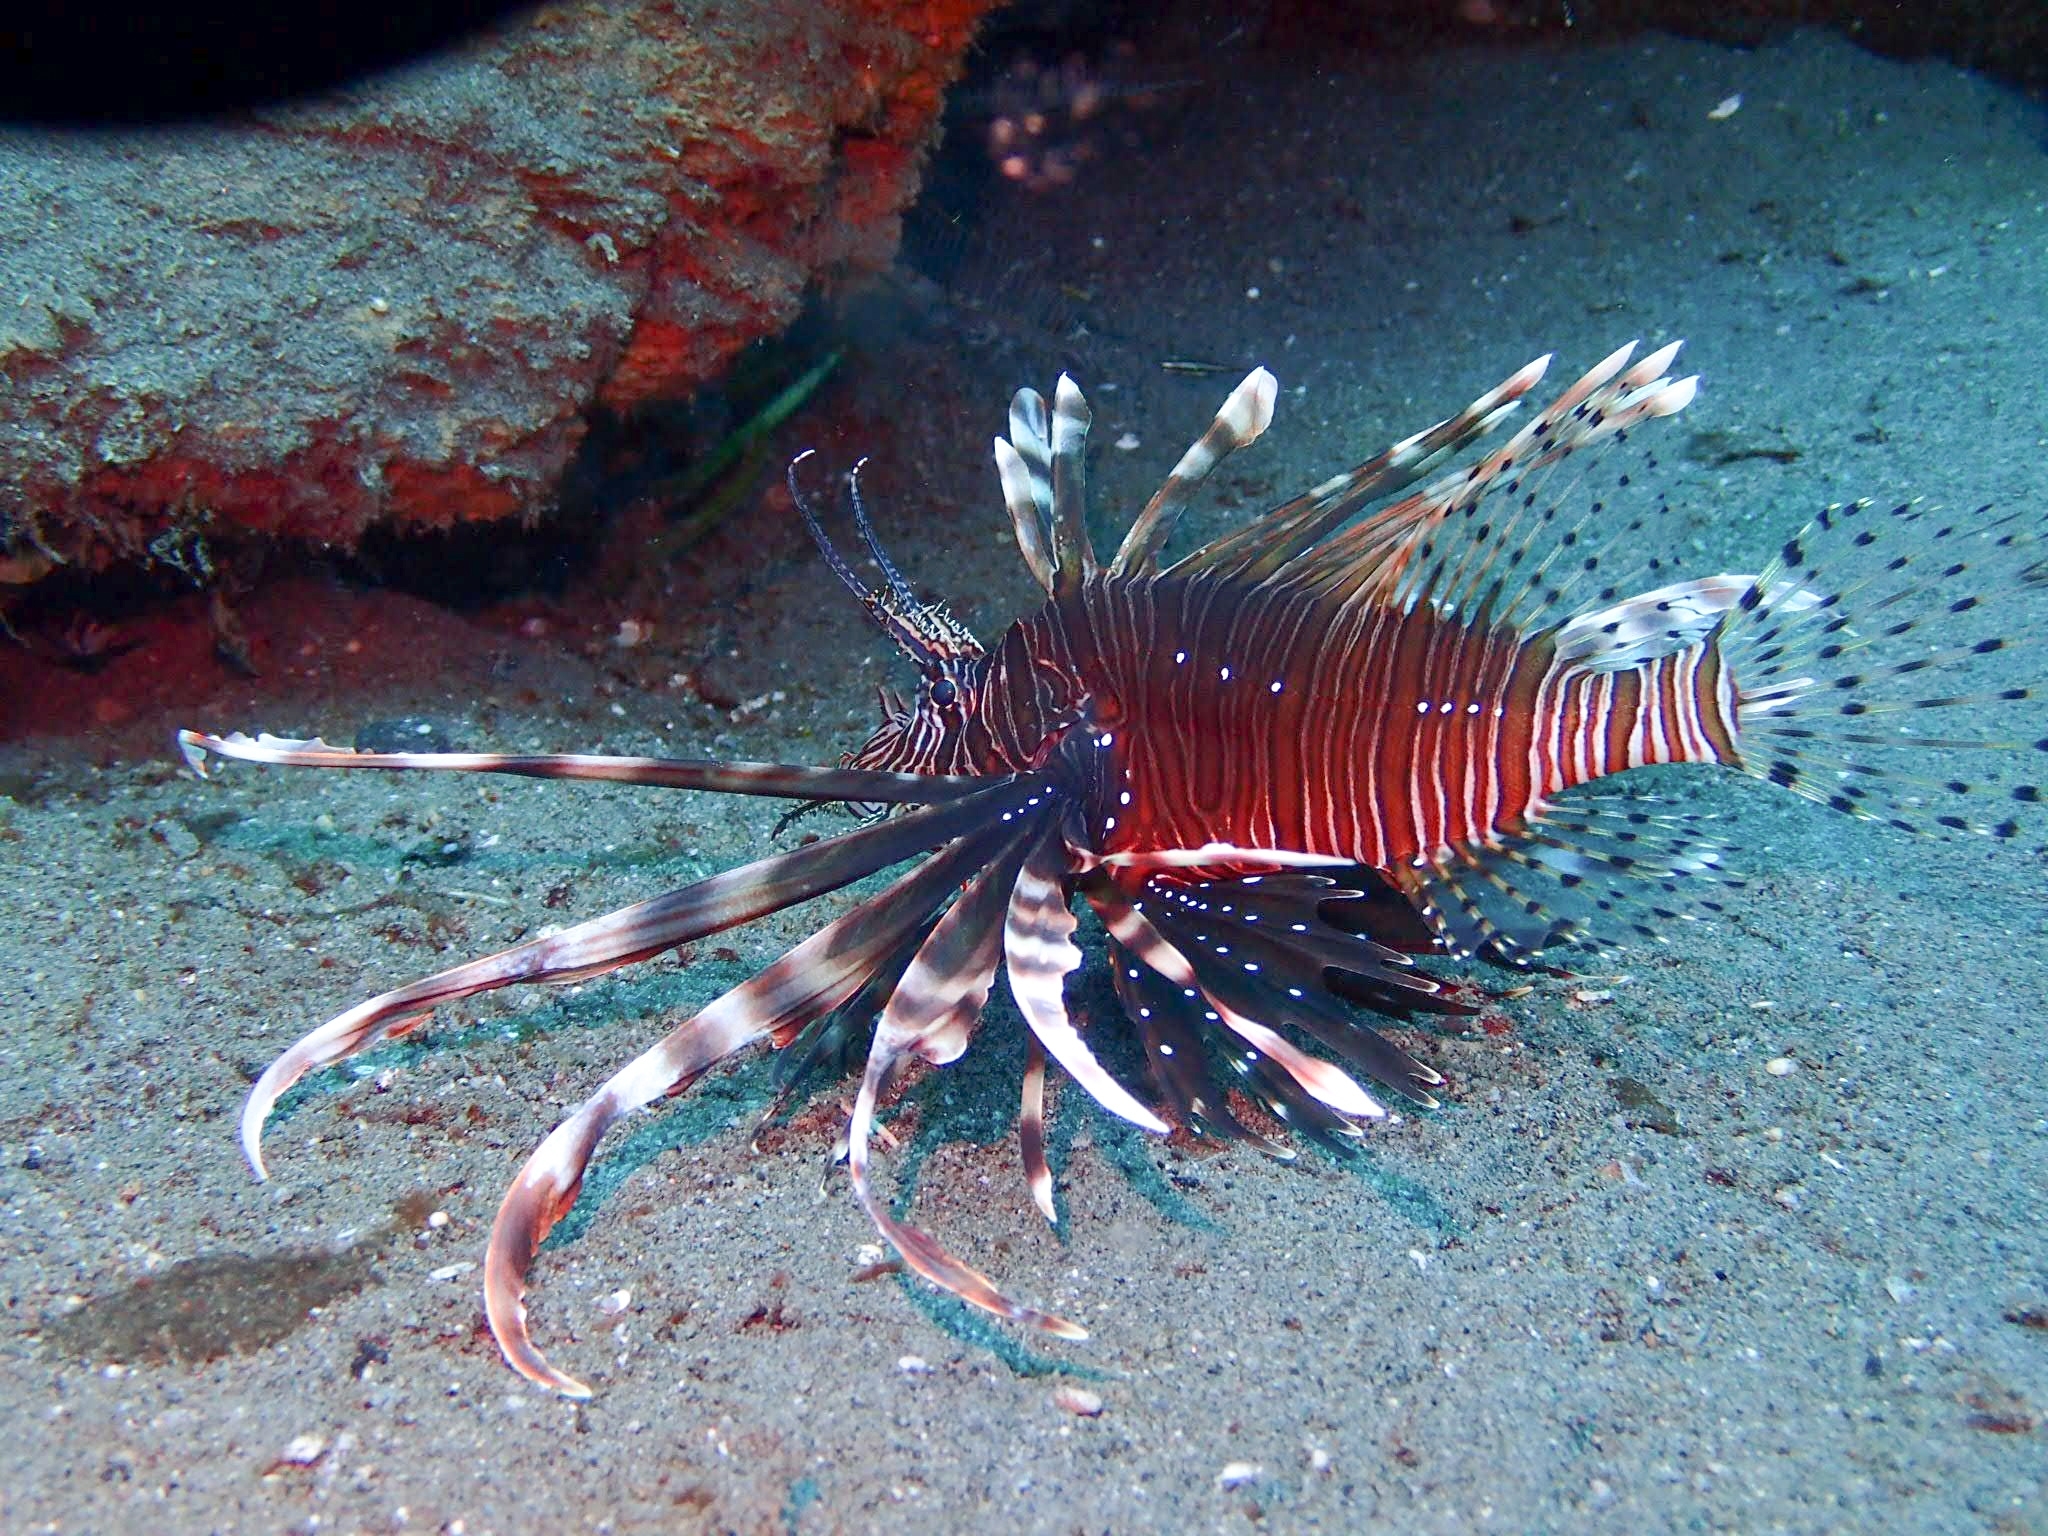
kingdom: Animalia
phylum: Chordata
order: Scorpaeniformes
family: Scorpaenidae
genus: Pterois
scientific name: Pterois volitans
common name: Lionfish
